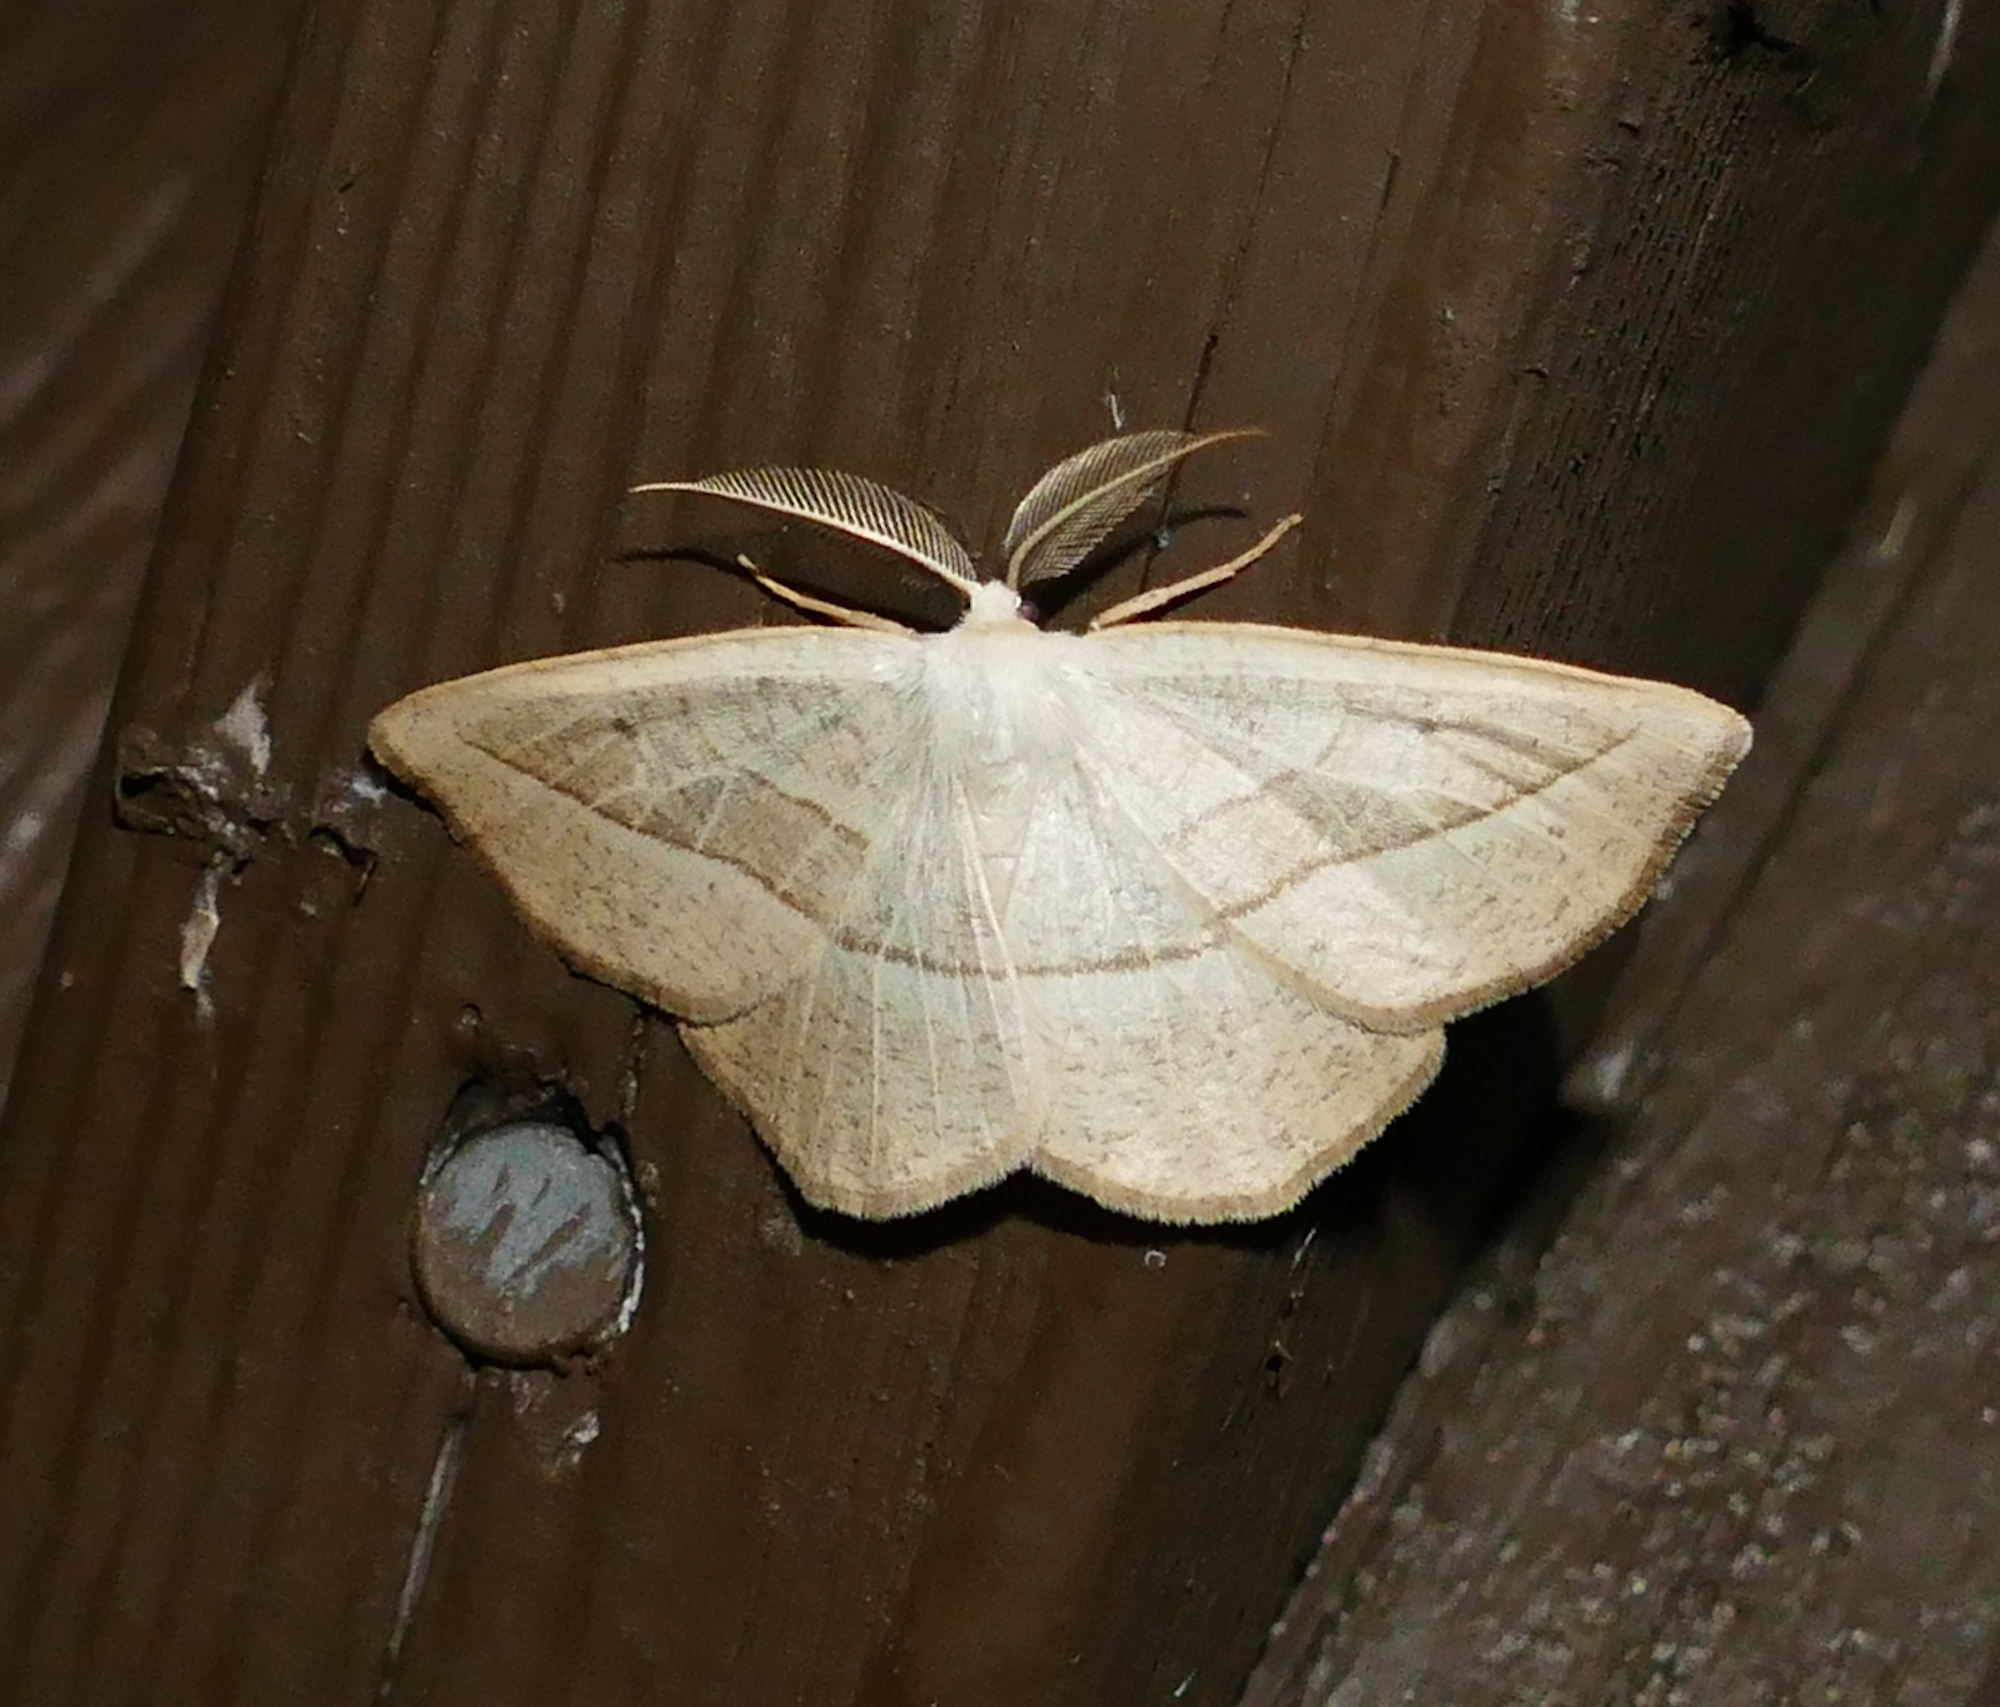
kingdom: Animalia
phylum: Arthropoda
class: Insecta
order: Lepidoptera
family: Geometridae
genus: Eusarca
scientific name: Eusarca confusaria
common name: Confused eusarca
